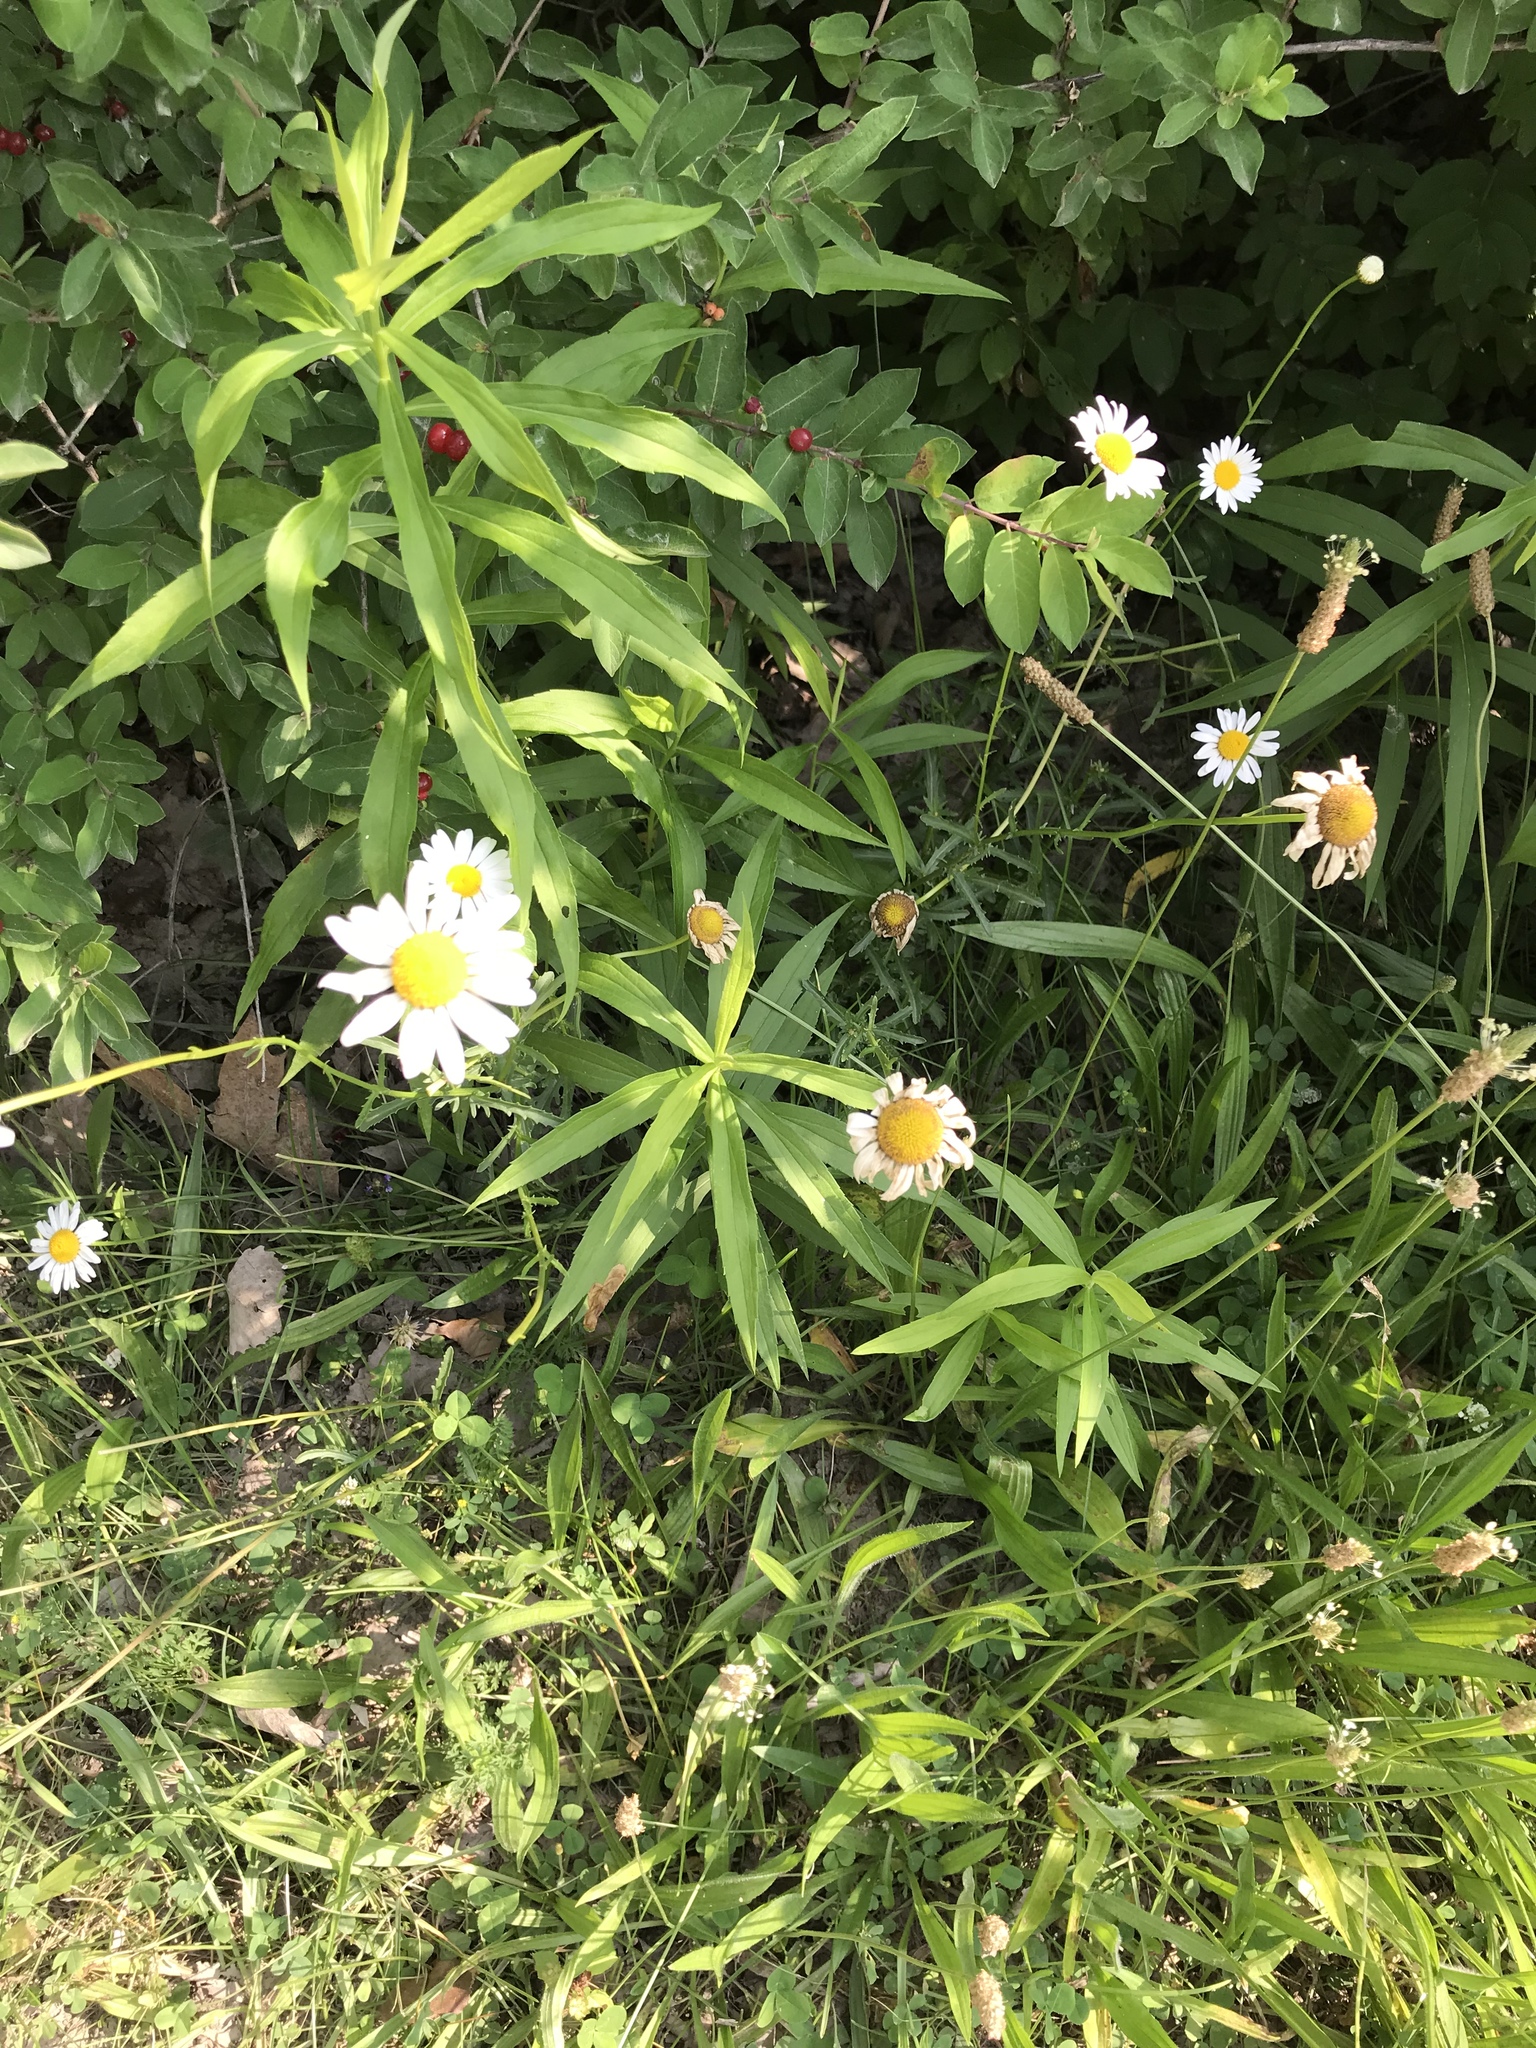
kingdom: Plantae
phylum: Tracheophyta
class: Magnoliopsida
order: Asterales
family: Asteraceae
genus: Leucanthemum
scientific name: Leucanthemum vulgare
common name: Oxeye daisy
